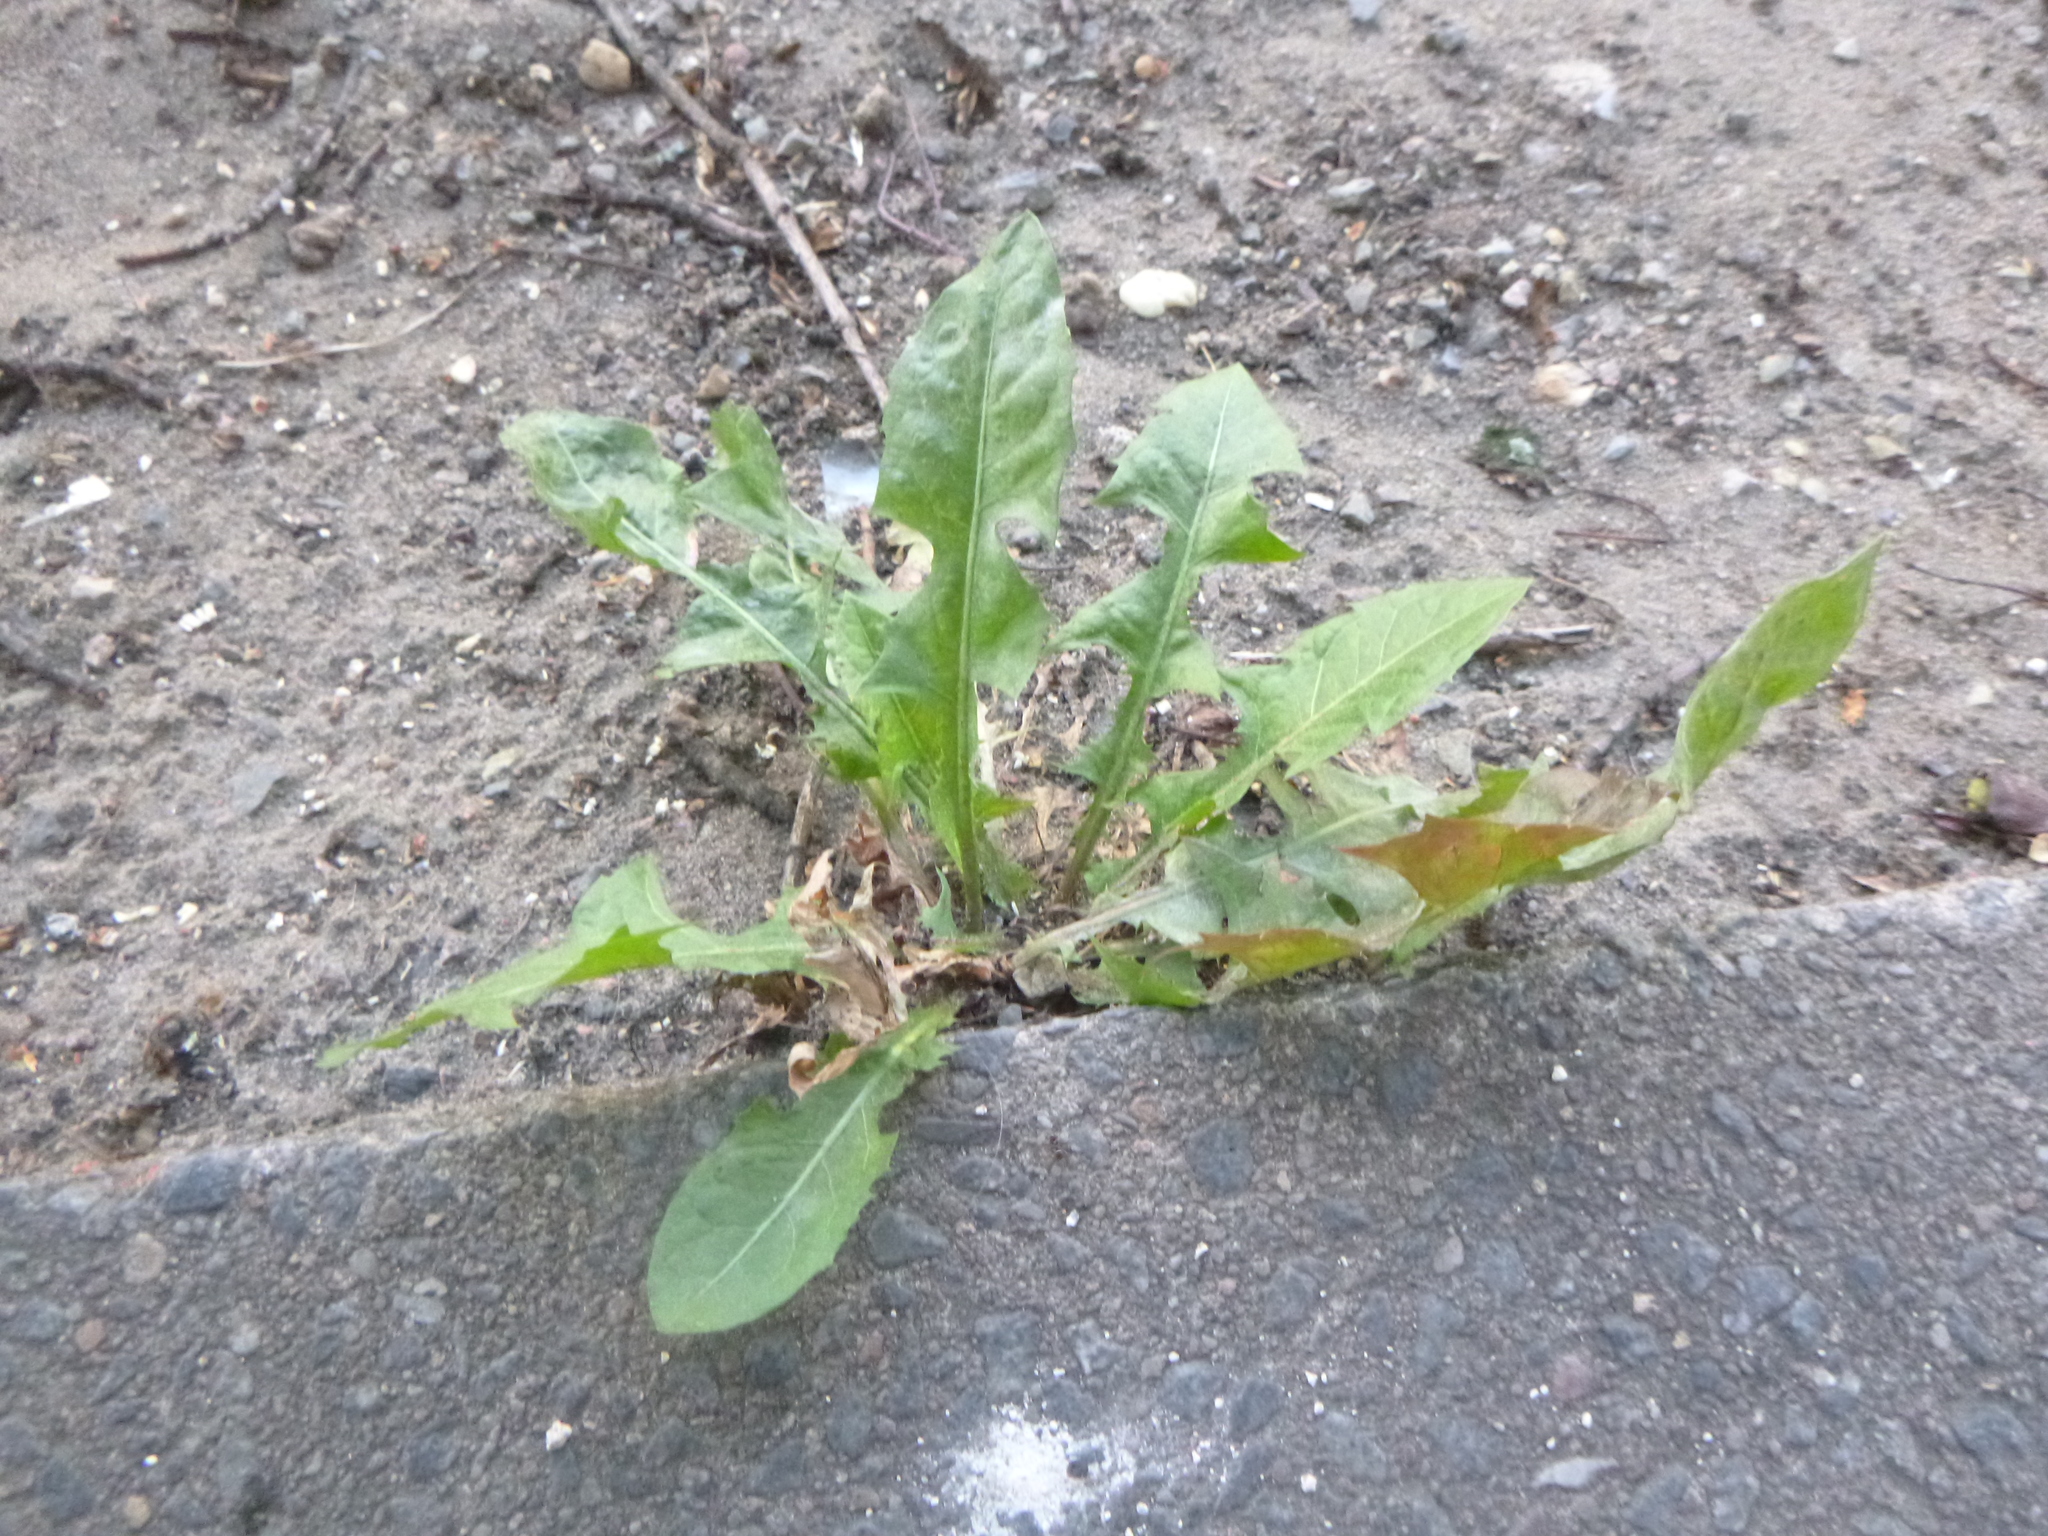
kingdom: Plantae
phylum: Tracheophyta
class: Magnoliopsida
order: Asterales
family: Asteraceae
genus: Taraxacum
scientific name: Taraxacum officinale
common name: Common dandelion
